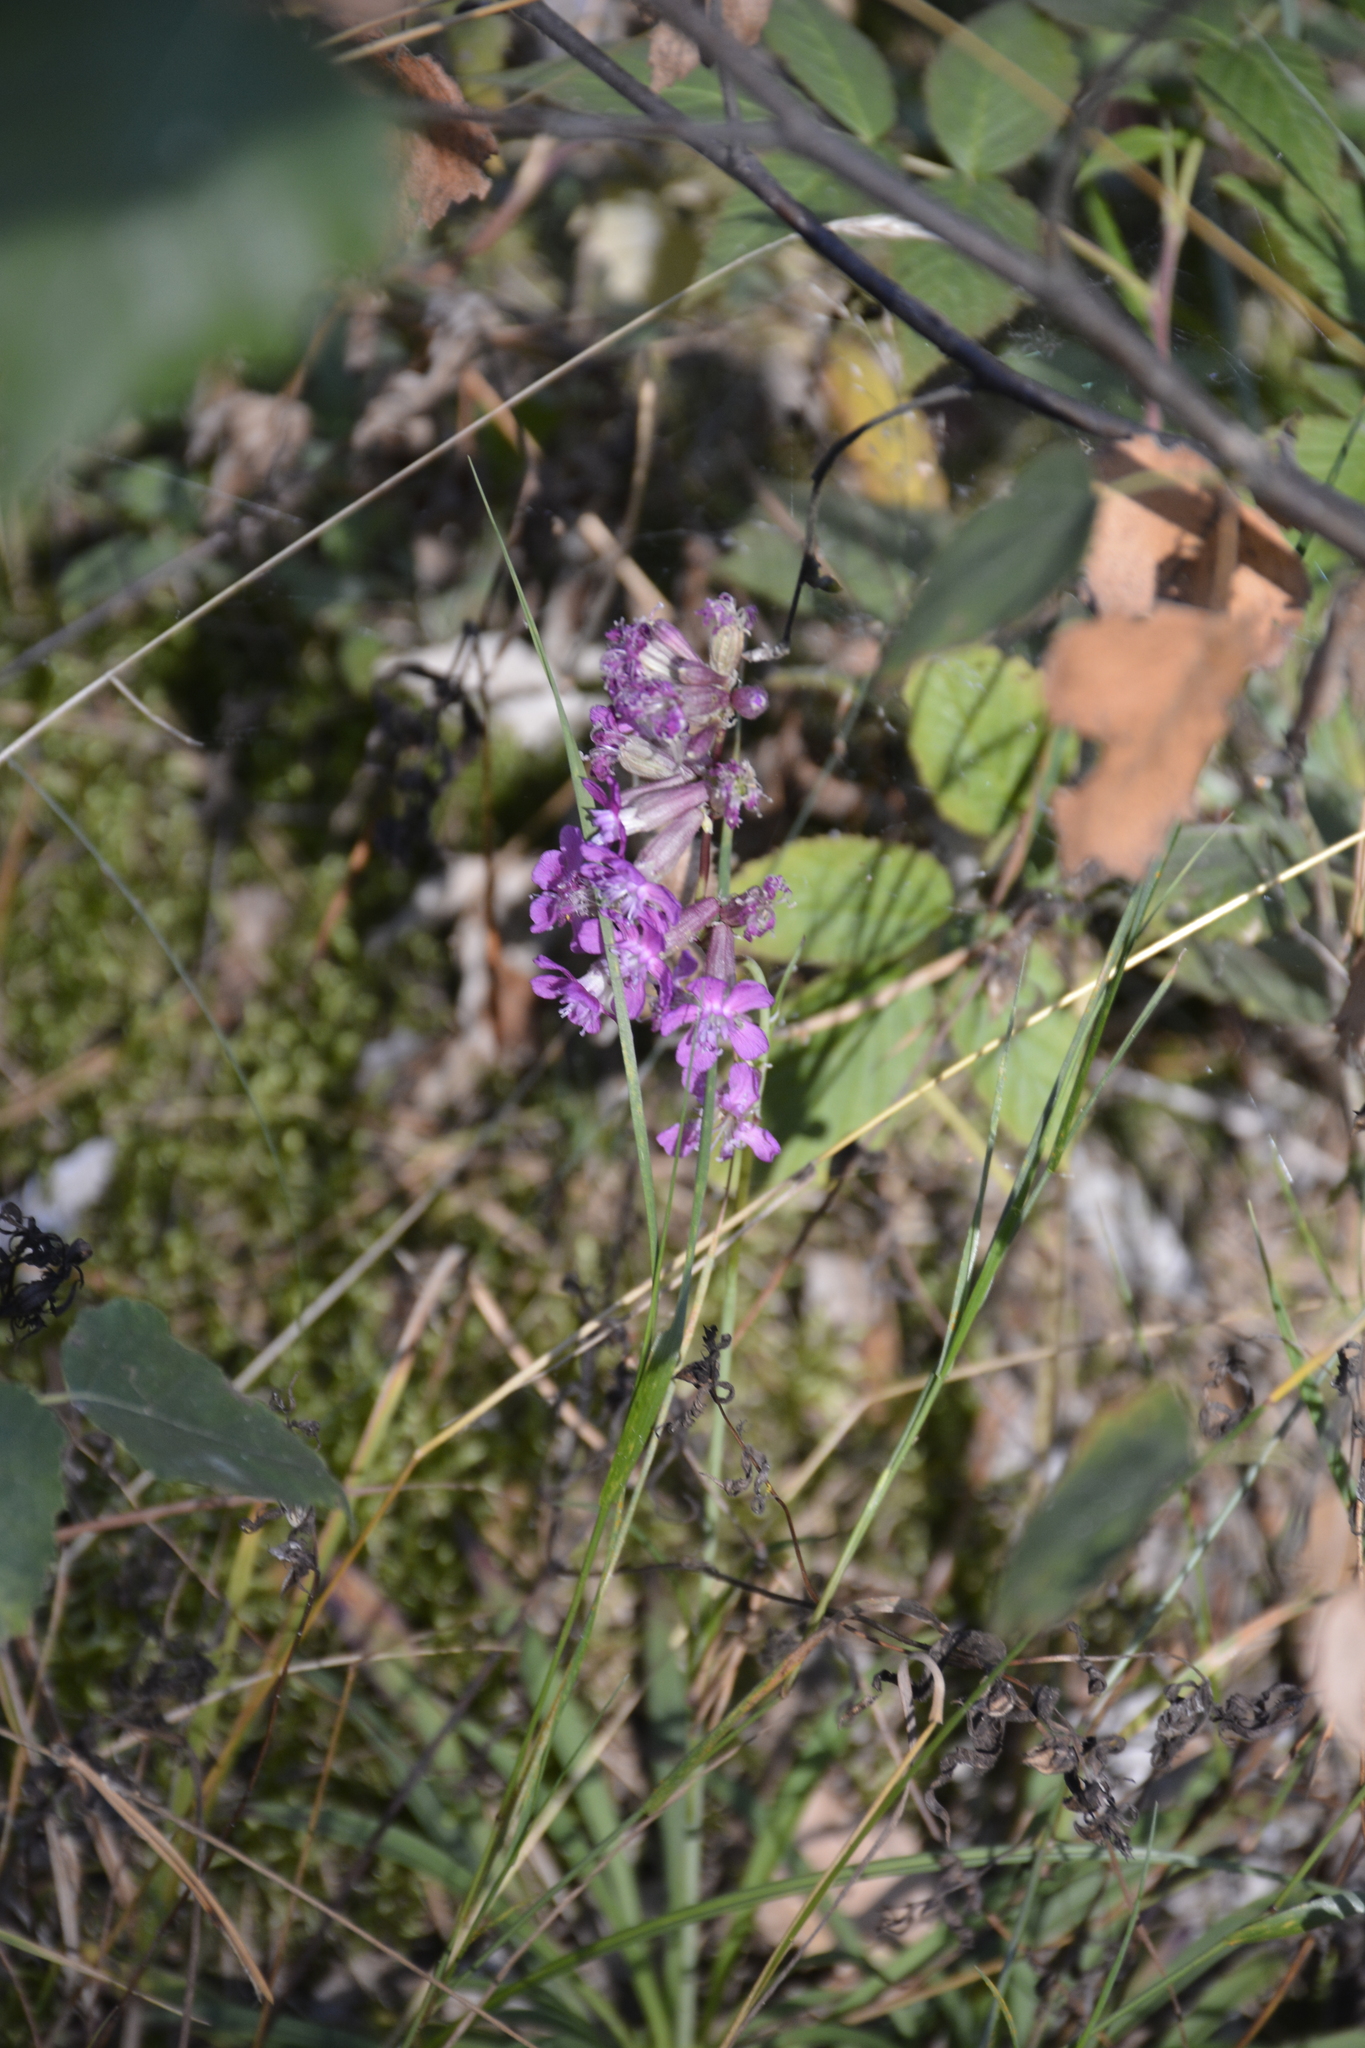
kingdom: Plantae
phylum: Tracheophyta
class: Magnoliopsida
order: Caryophyllales
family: Caryophyllaceae
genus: Viscaria
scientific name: Viscaria vulgaris
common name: Clammy campion
